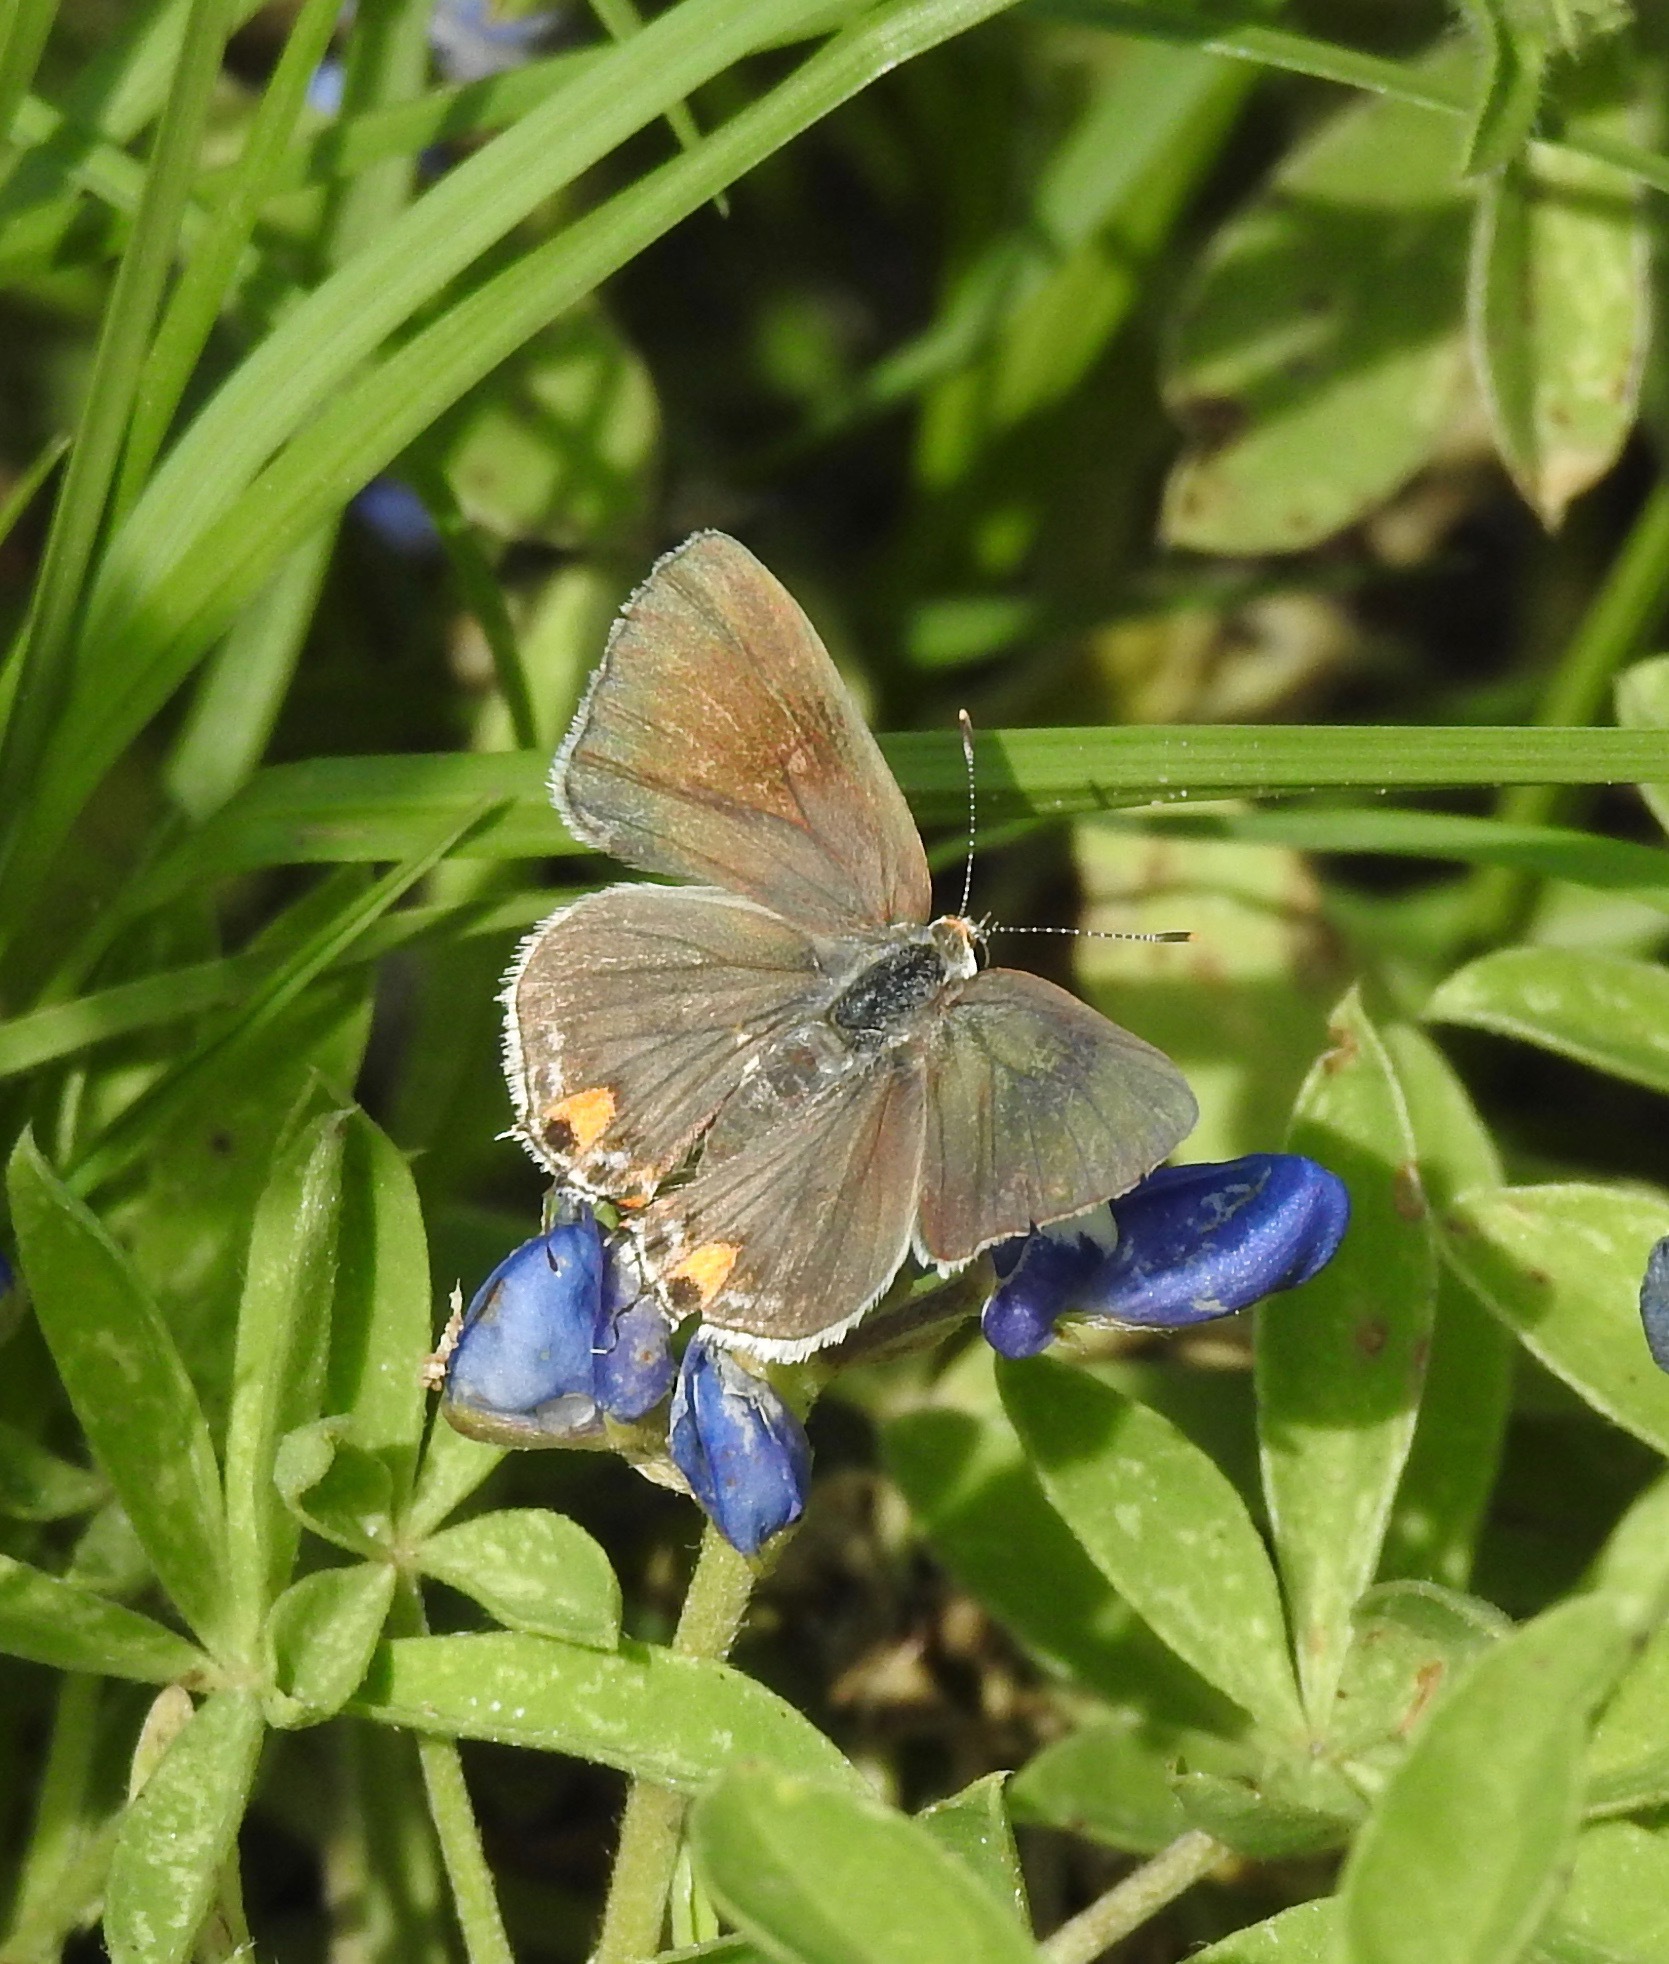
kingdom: Animalia
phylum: Arthropoda
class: Insecta
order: Lepidoptera
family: Lycaenidae
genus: Strymon
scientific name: Strymon melinus
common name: Gray hairstreak
